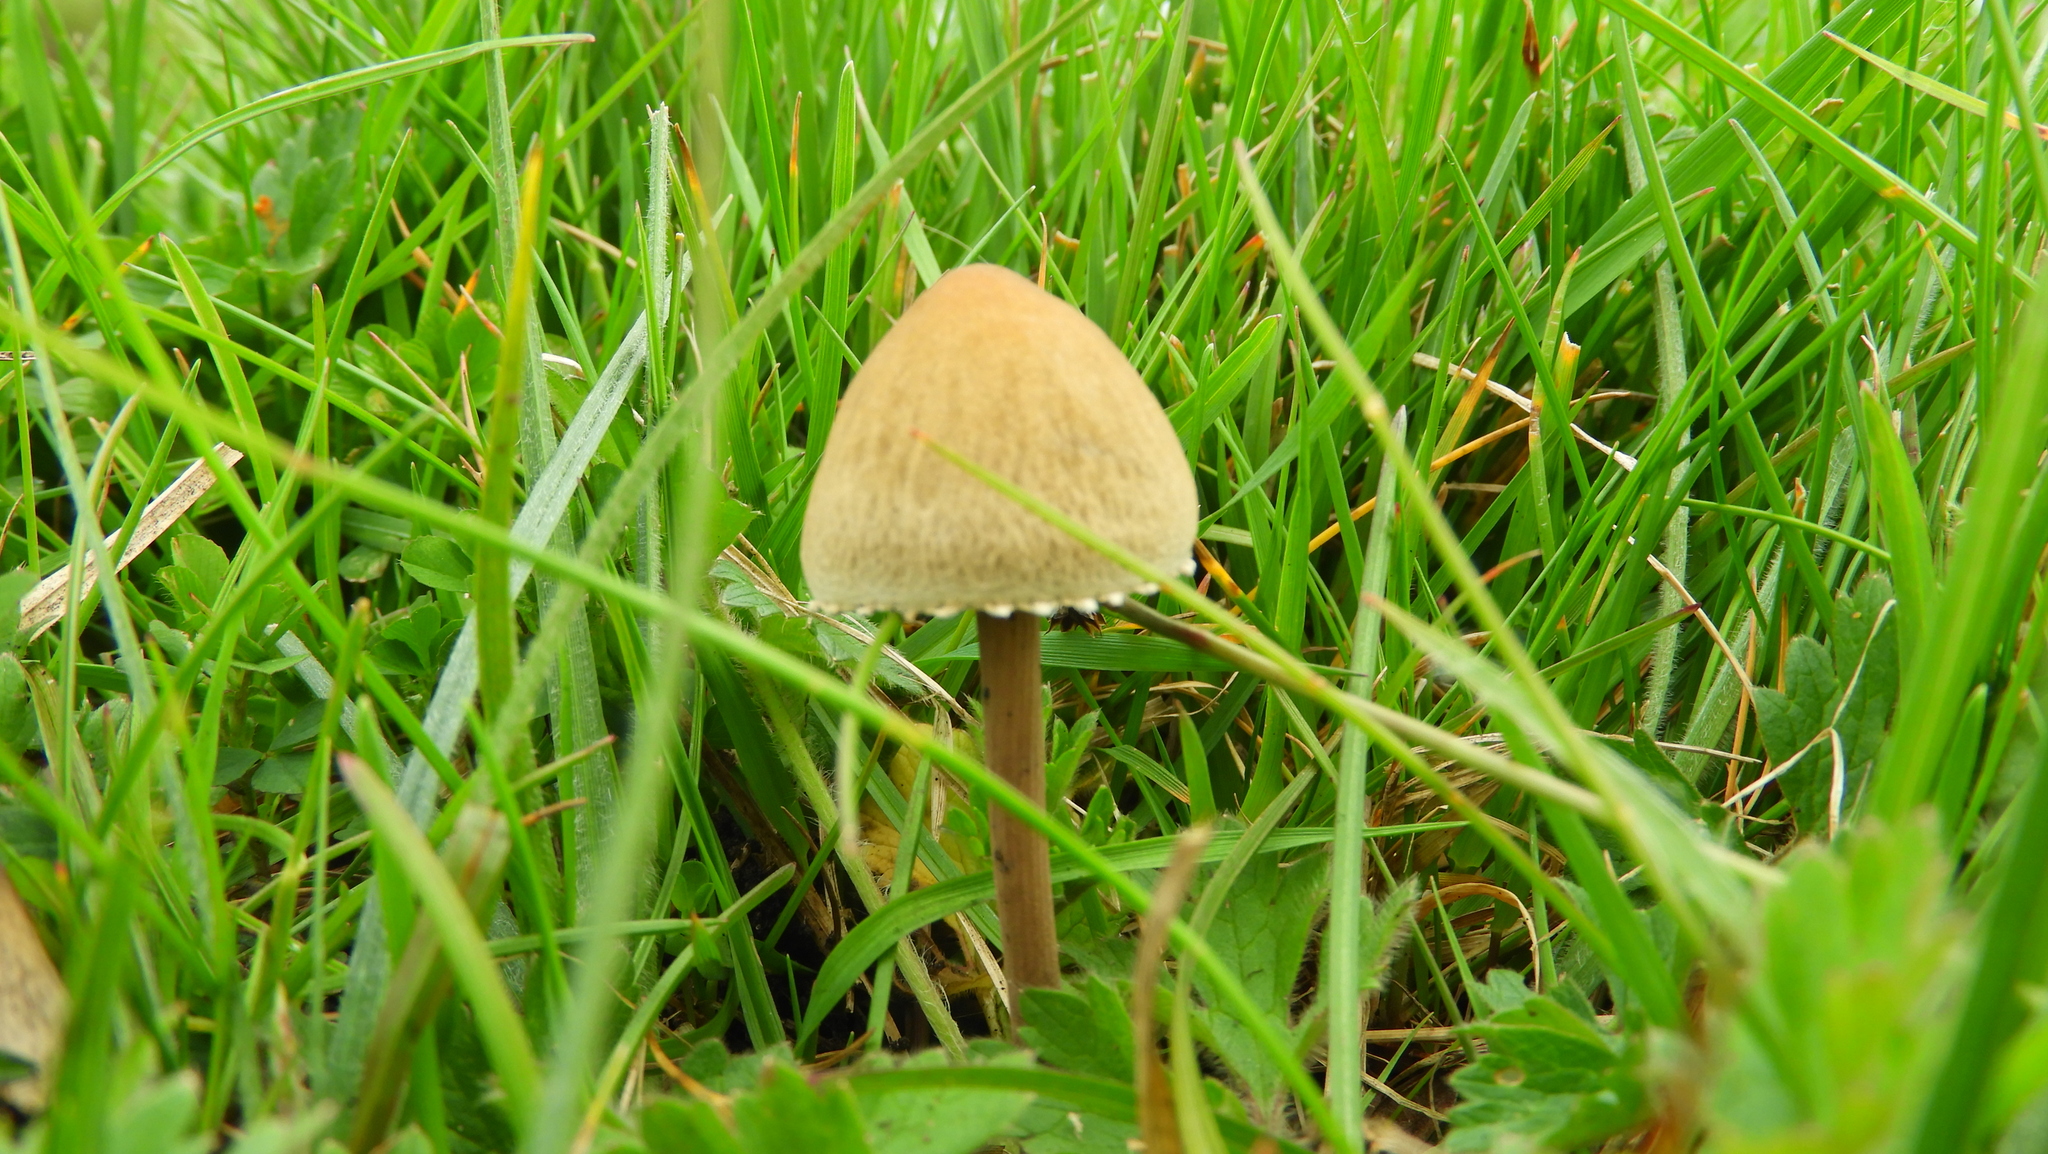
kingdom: Fungi
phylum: Basidiomycota
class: Agaricomycetes
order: Agaricales
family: Bolbitiaceae
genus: Panaeolus
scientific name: Panaeolus papilionaceus
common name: Petticoat mottlegill
